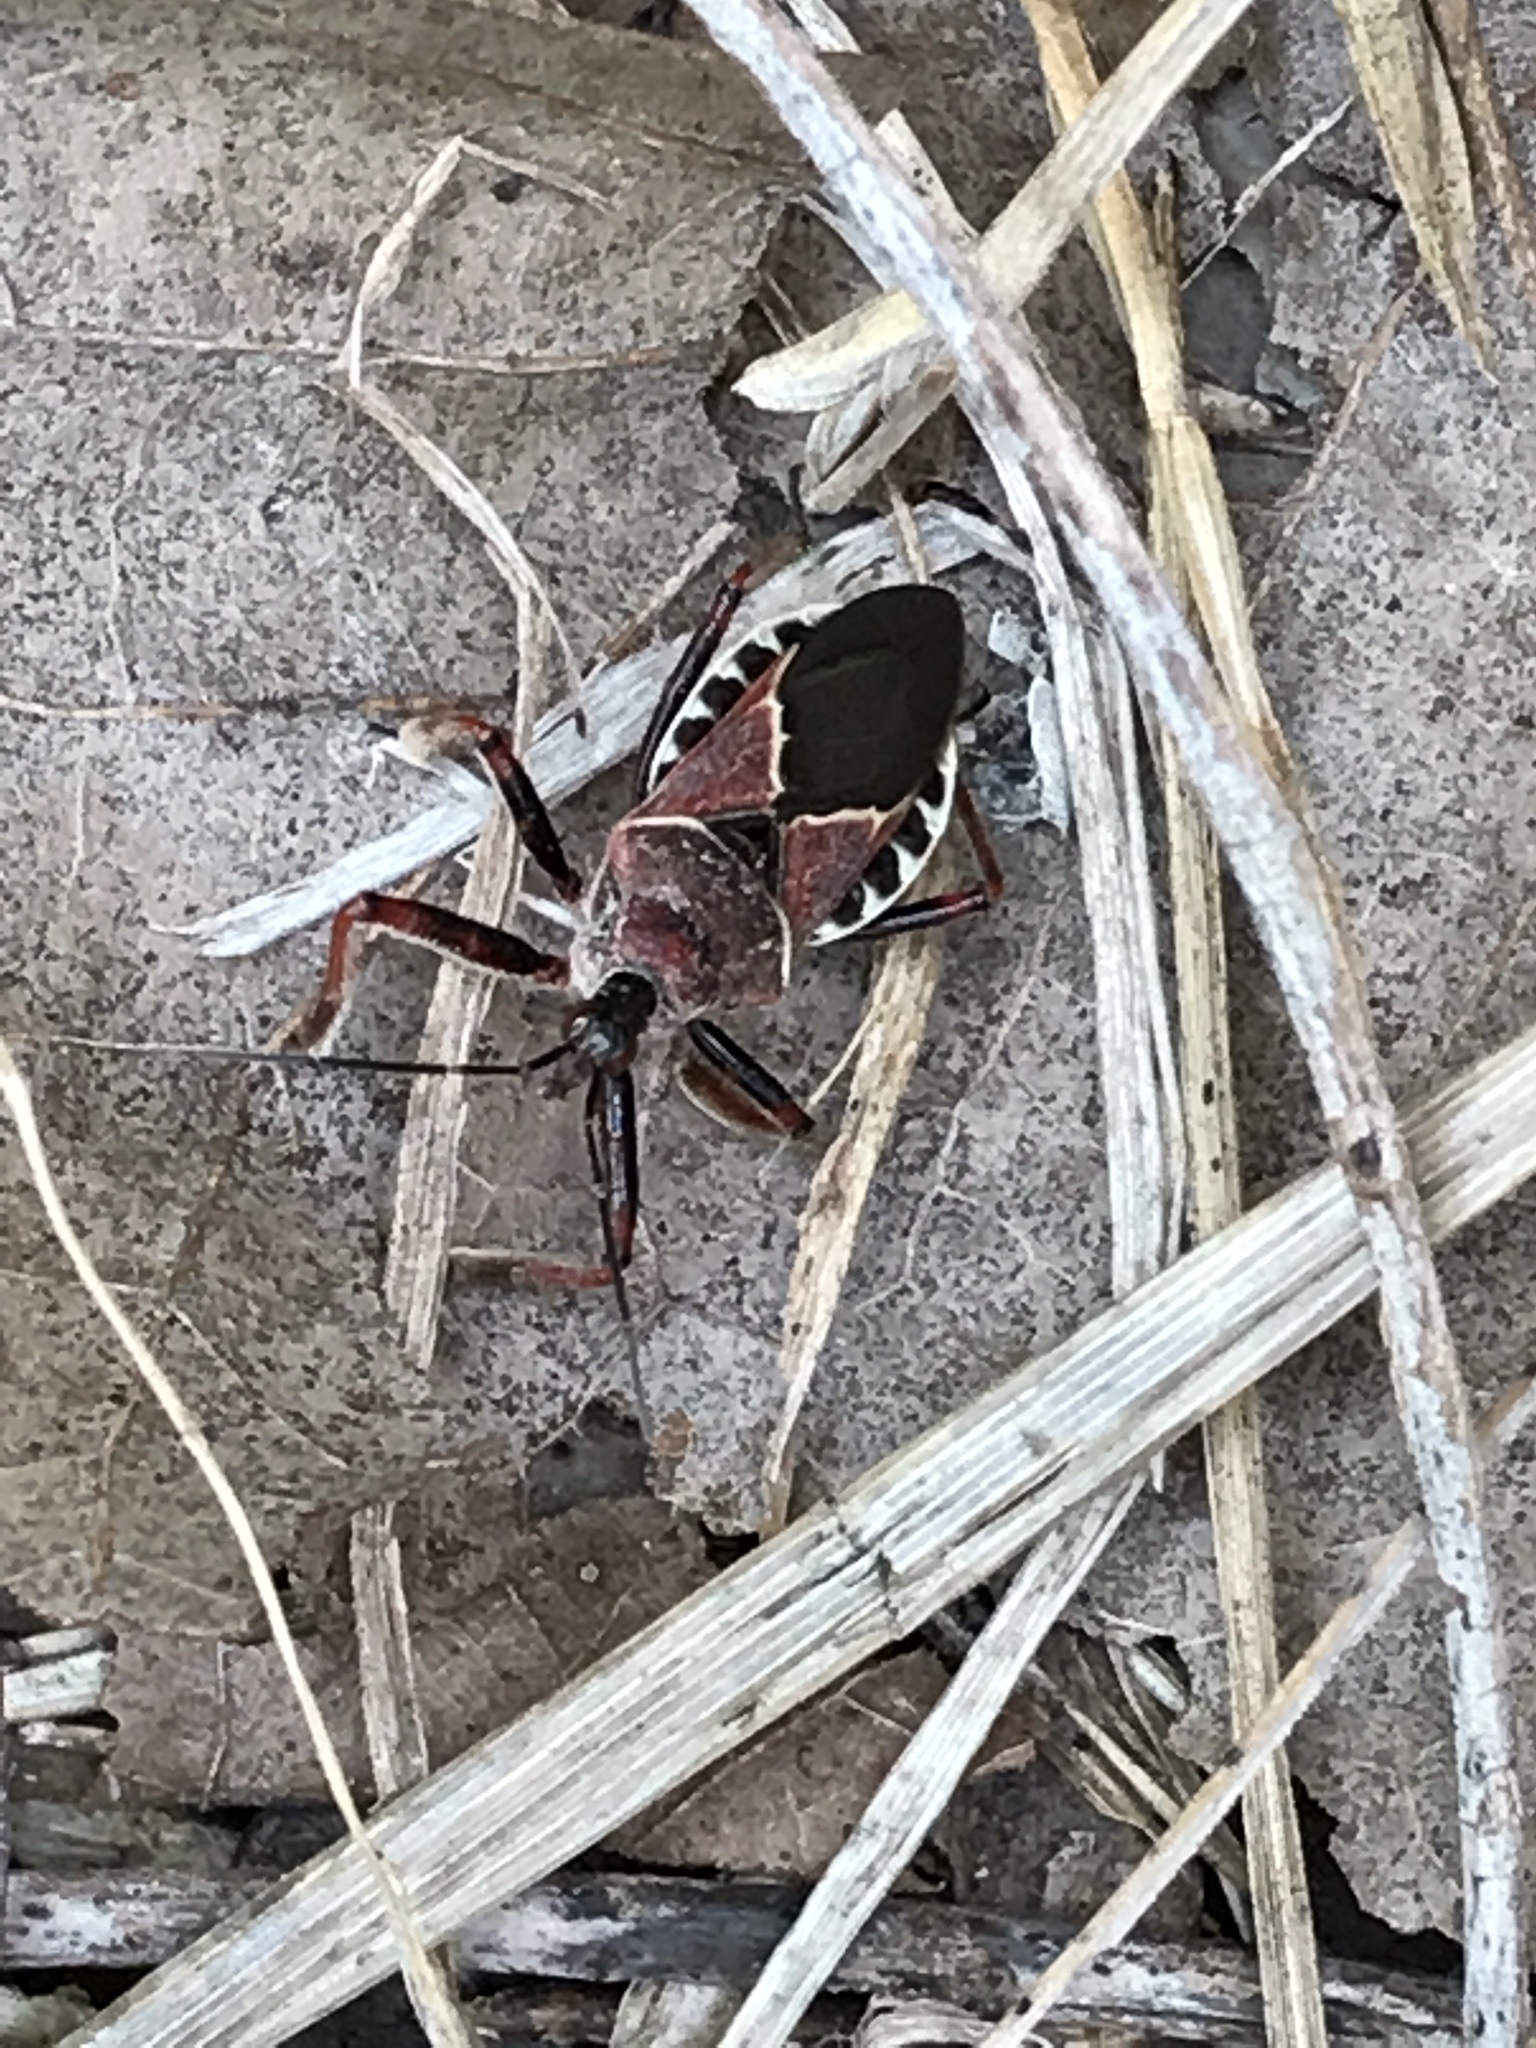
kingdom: Animalia
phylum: Arthropoda
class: Insecta
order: Hemiptera
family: Reduviidae
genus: Apiomerus
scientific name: Apiomerus spissipes
